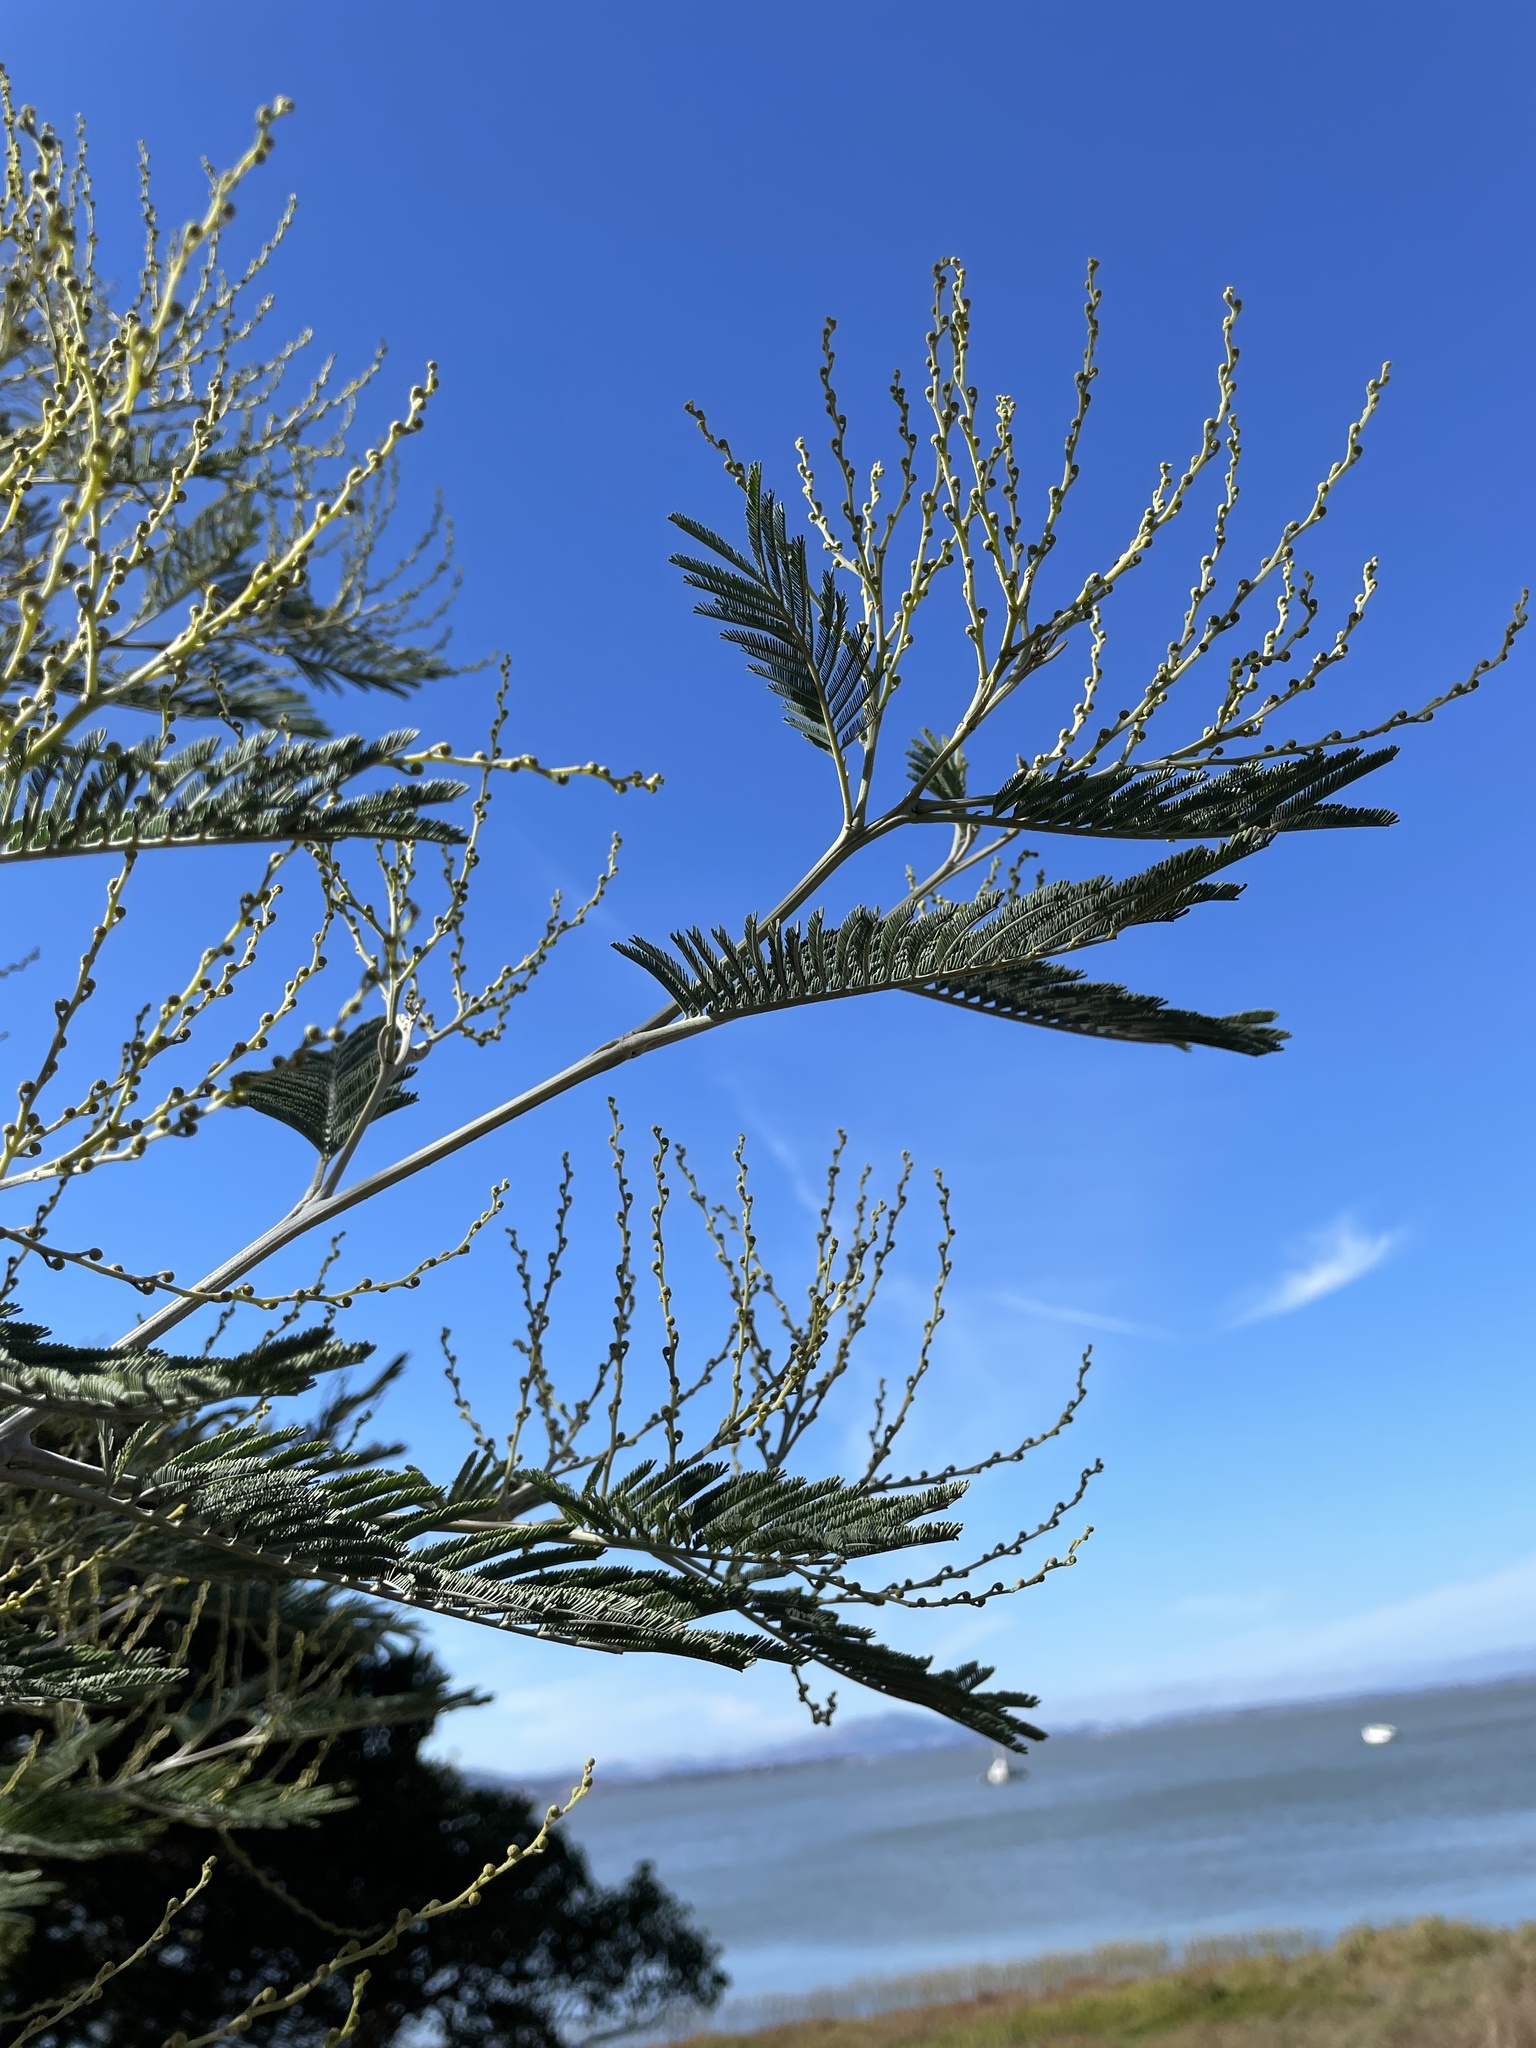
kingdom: Plantae
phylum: Tracheophyta
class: Magnoliopsida
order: Fabales
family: Fabaceae
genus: Acacia
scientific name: Acacia dealbata
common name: Silver wattle
